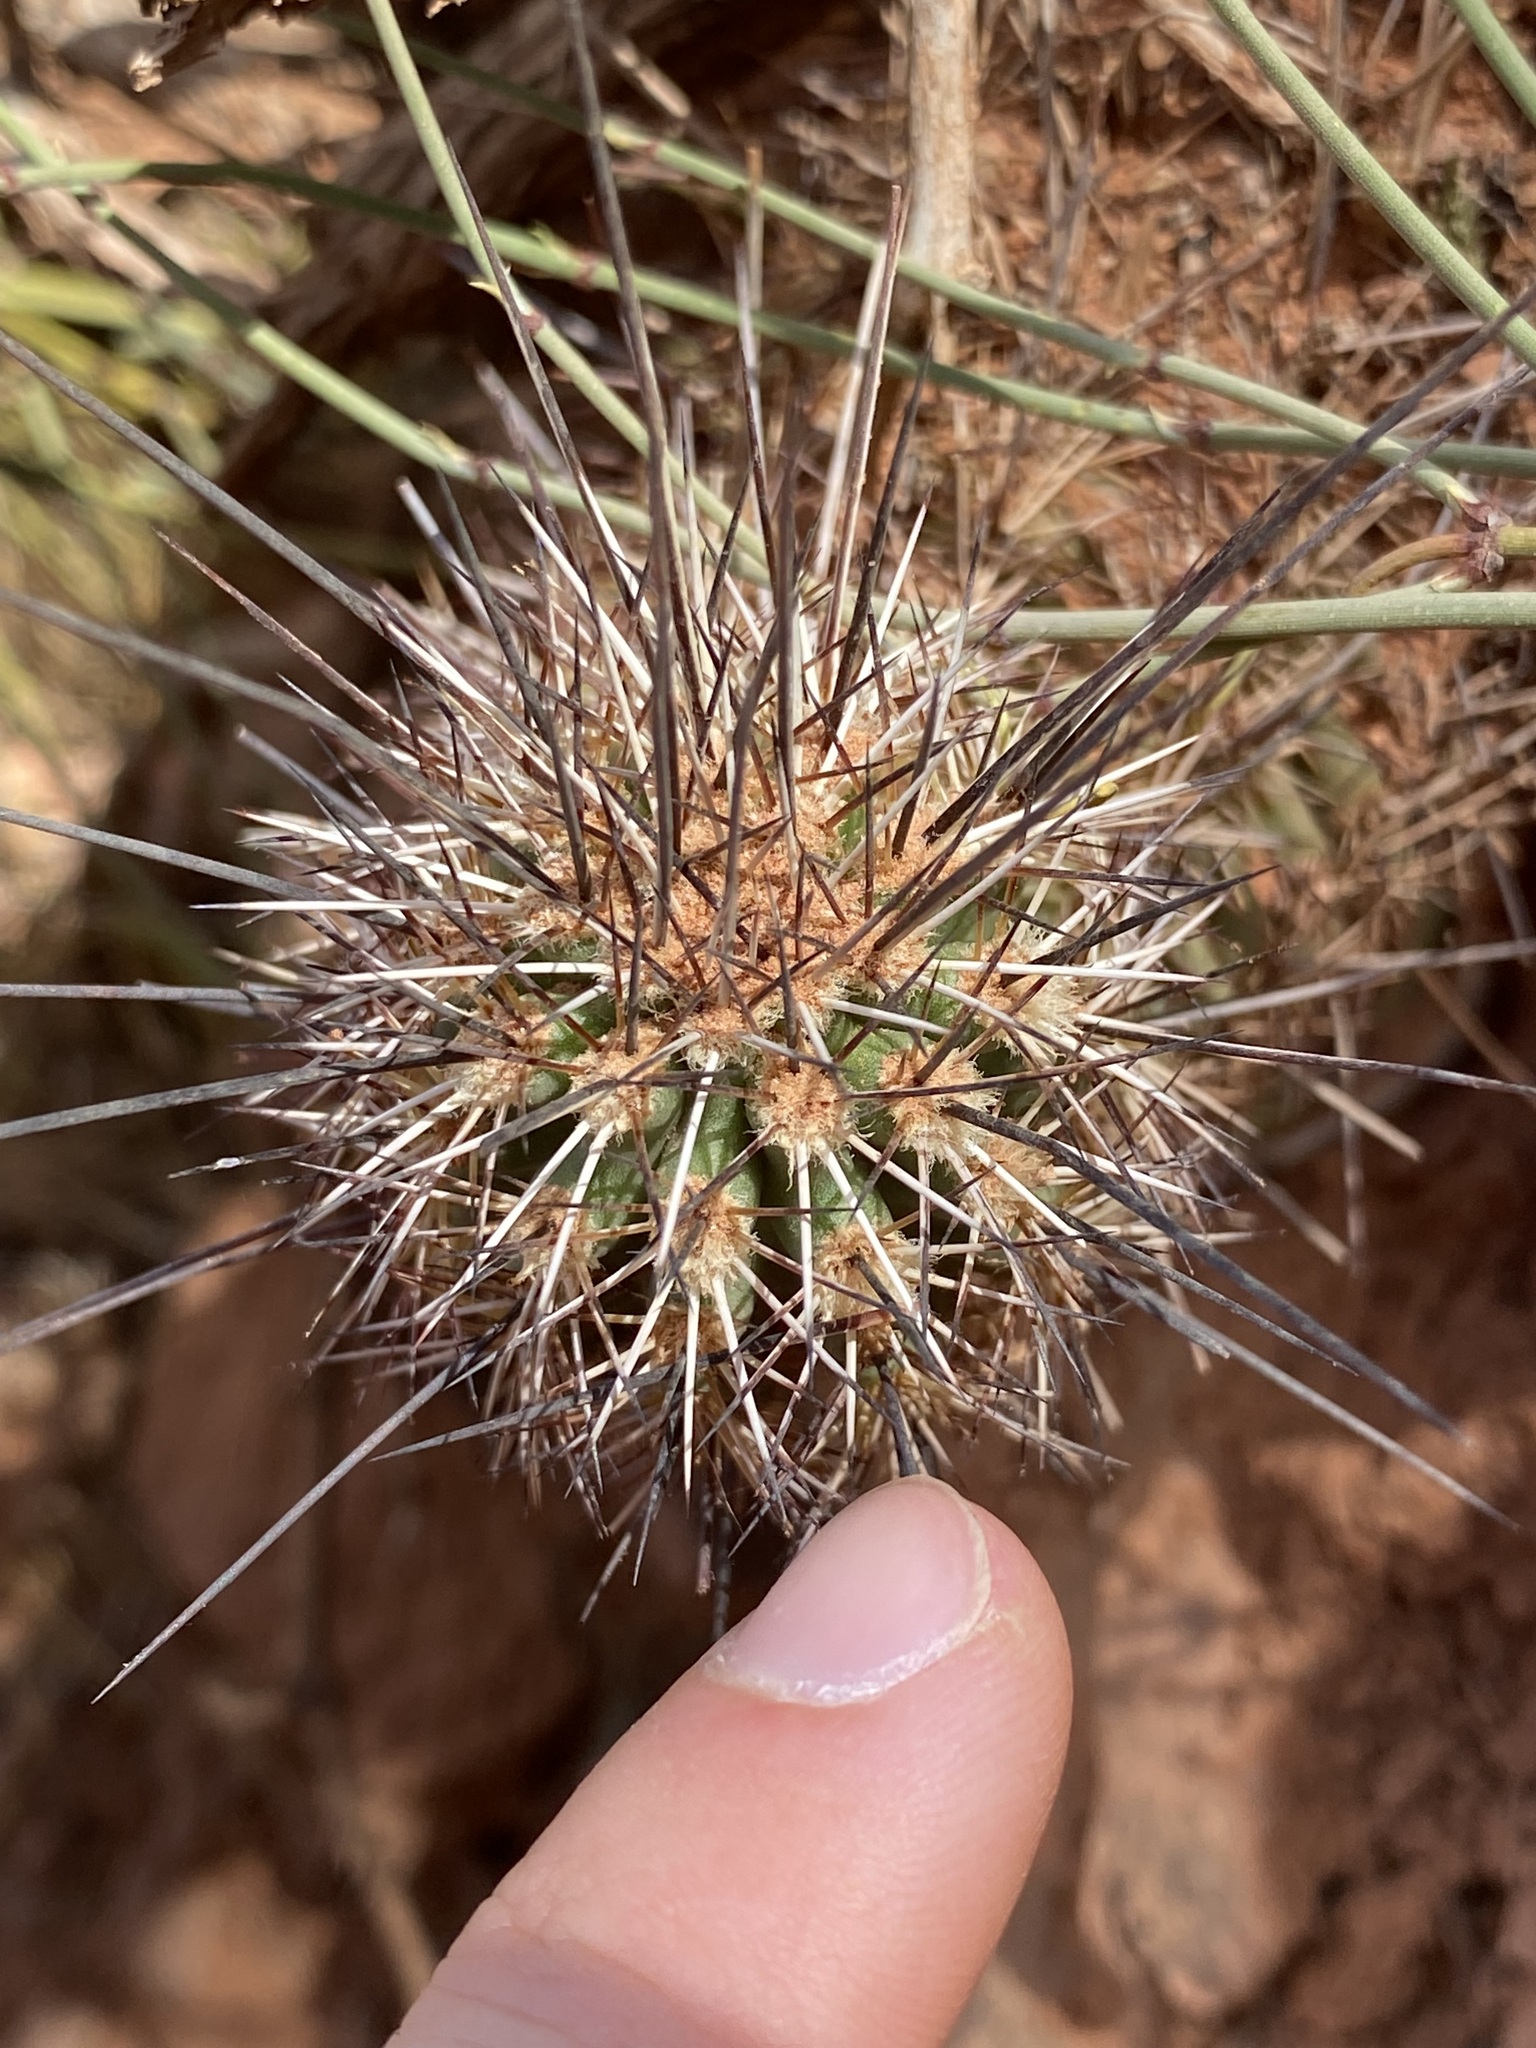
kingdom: Plantae
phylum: Tracheophyta
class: Magnoliopsida
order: Caryophyllales
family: Cactaceae
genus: Echinocereus
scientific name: Echinocereus bakeri
